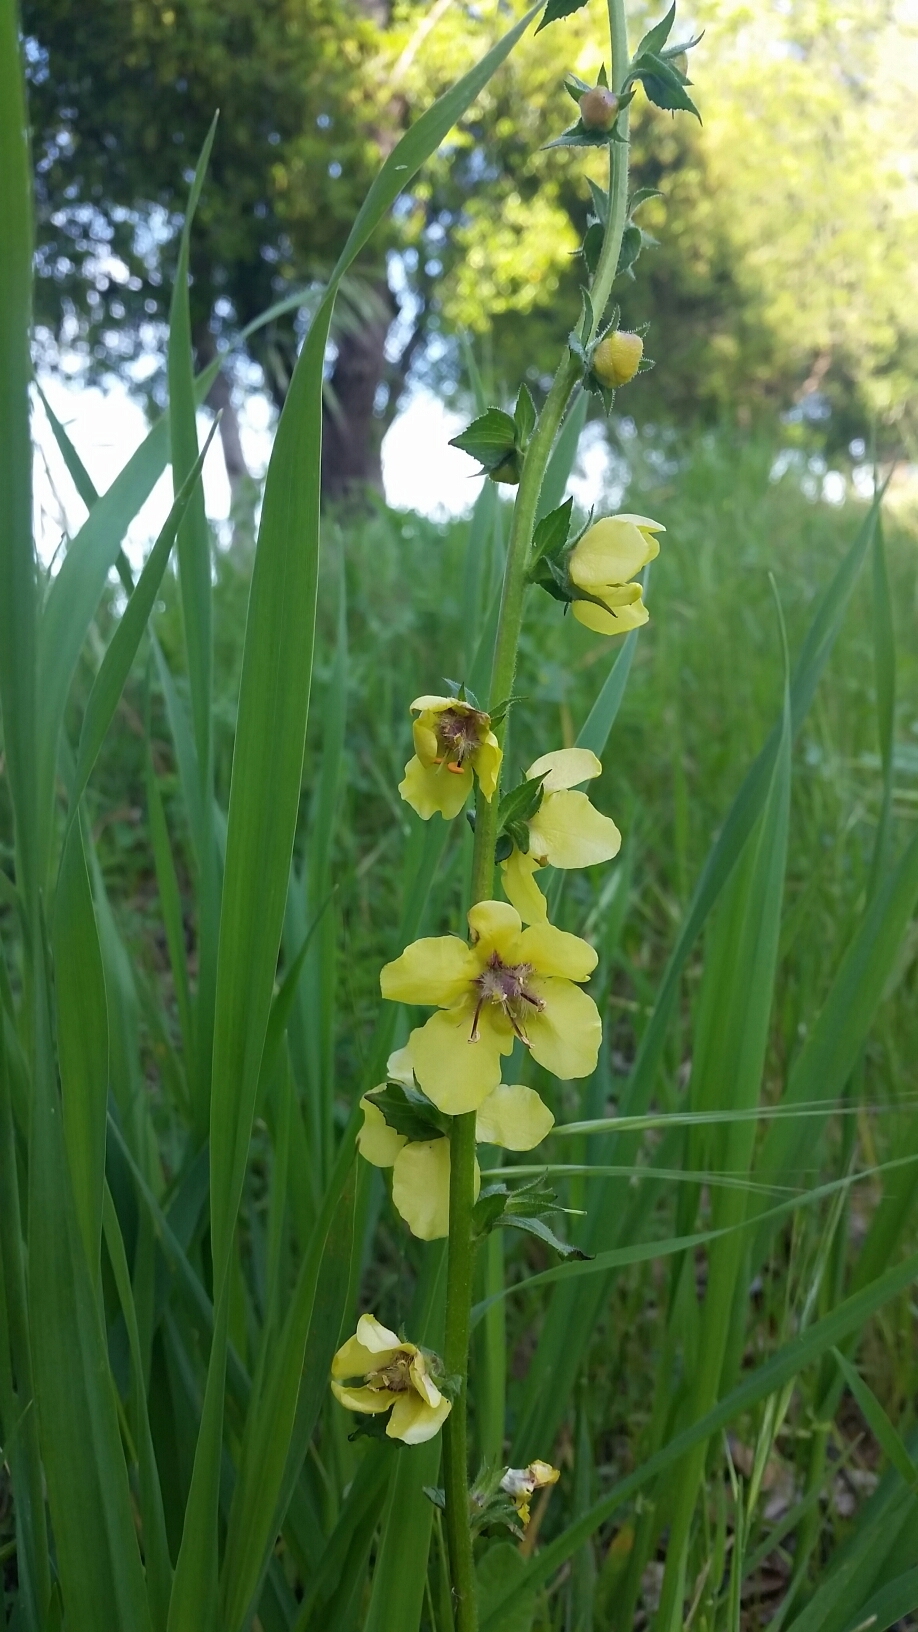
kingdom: Plantae
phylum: Tracheophyta
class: Magnoliopsida
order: Lamiales
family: Scrophulariaceae
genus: Verbascum
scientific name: Verbascum virgatum
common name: Twiggy mullein
